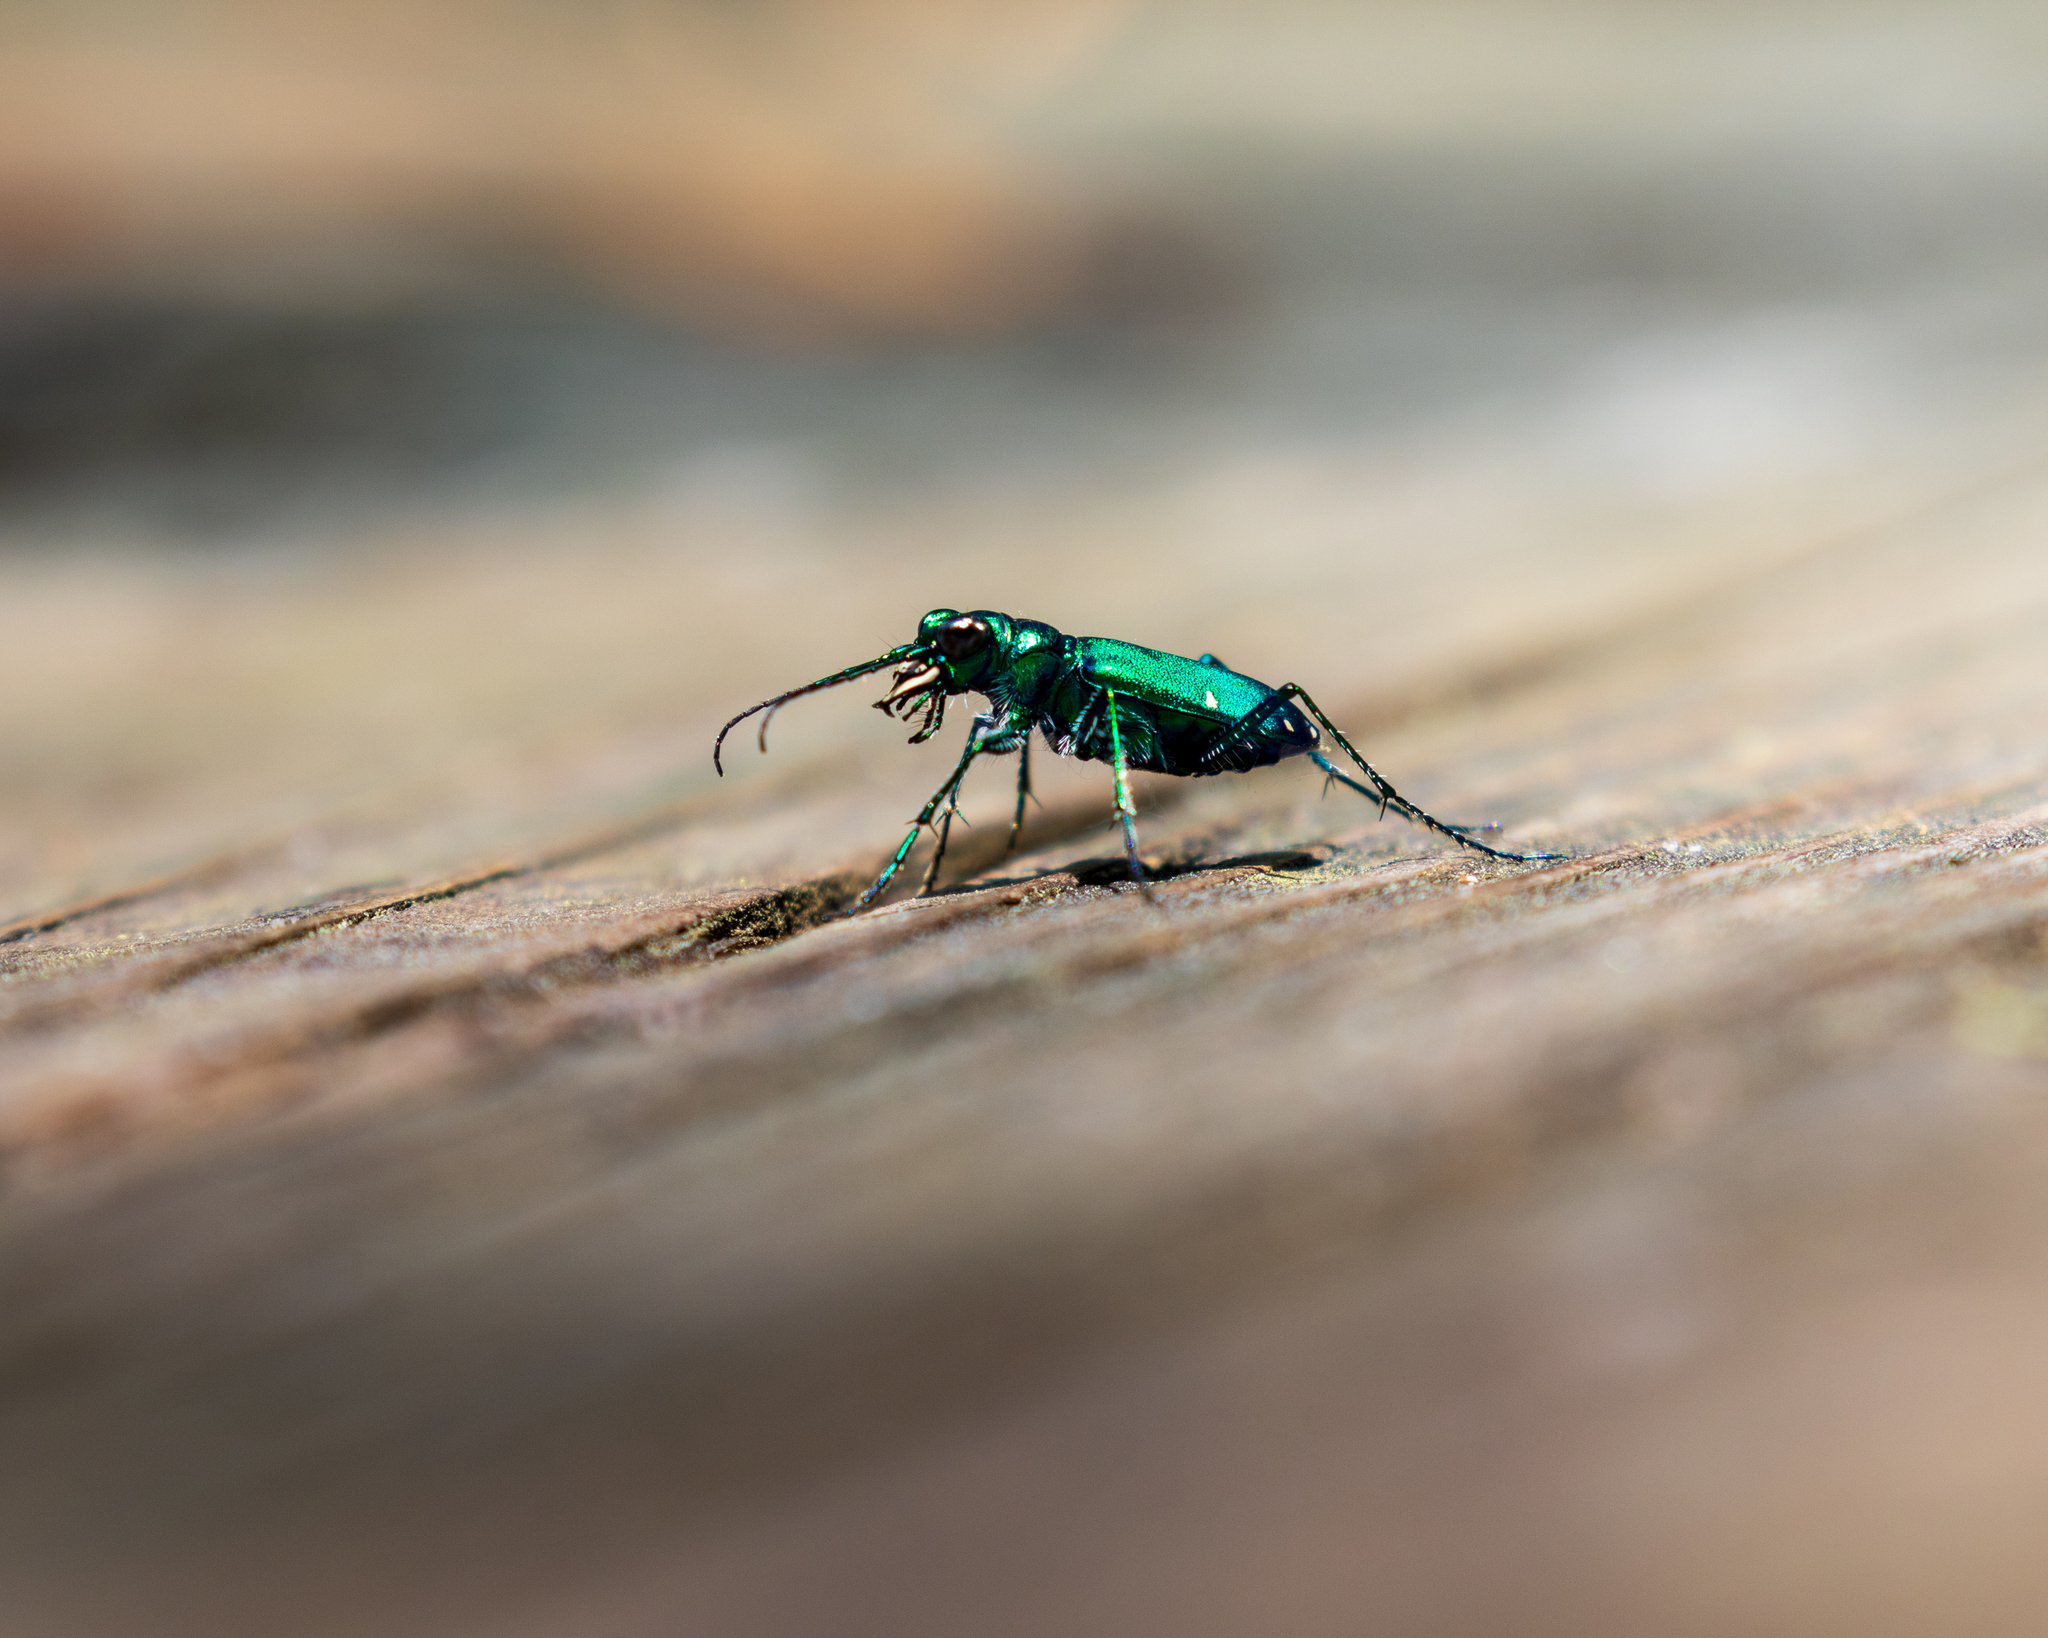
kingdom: Animalia
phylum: Arthropoda
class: Insecta
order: Coleoptera
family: Carabidae
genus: Cicindela
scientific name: Cicindela sexguttata
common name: Six-spotted tiger beetle
